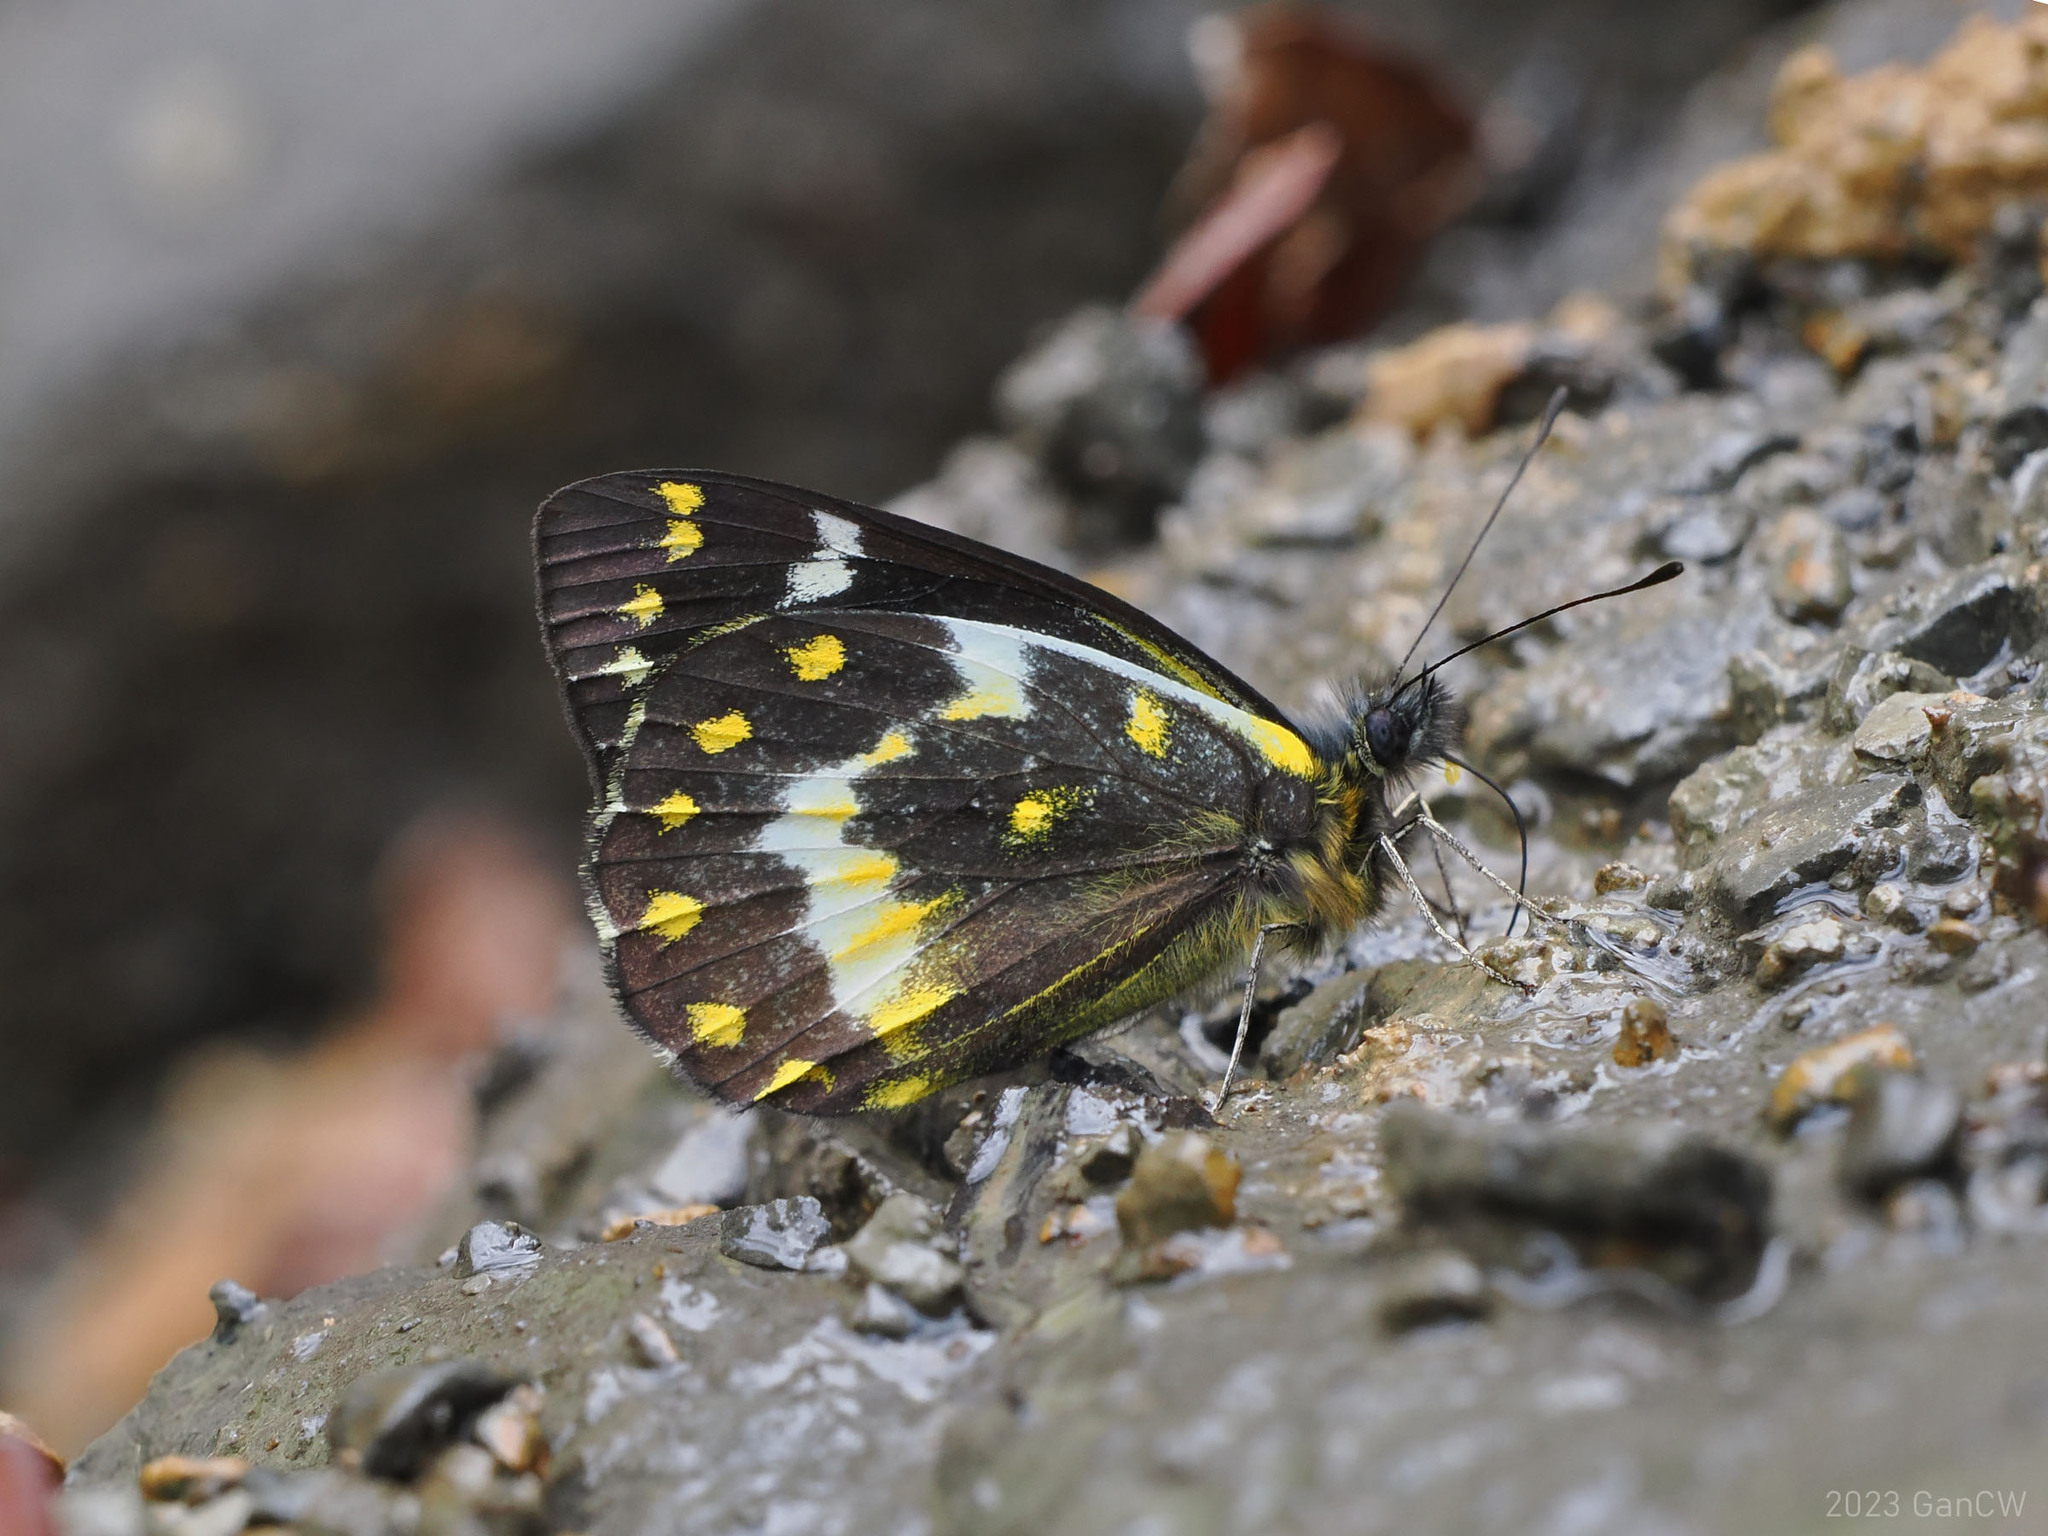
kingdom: Animalia
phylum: Arthropoda
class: Insecta
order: Lepidoptera
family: Pieridae
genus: Delias
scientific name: Delias oktanglap
